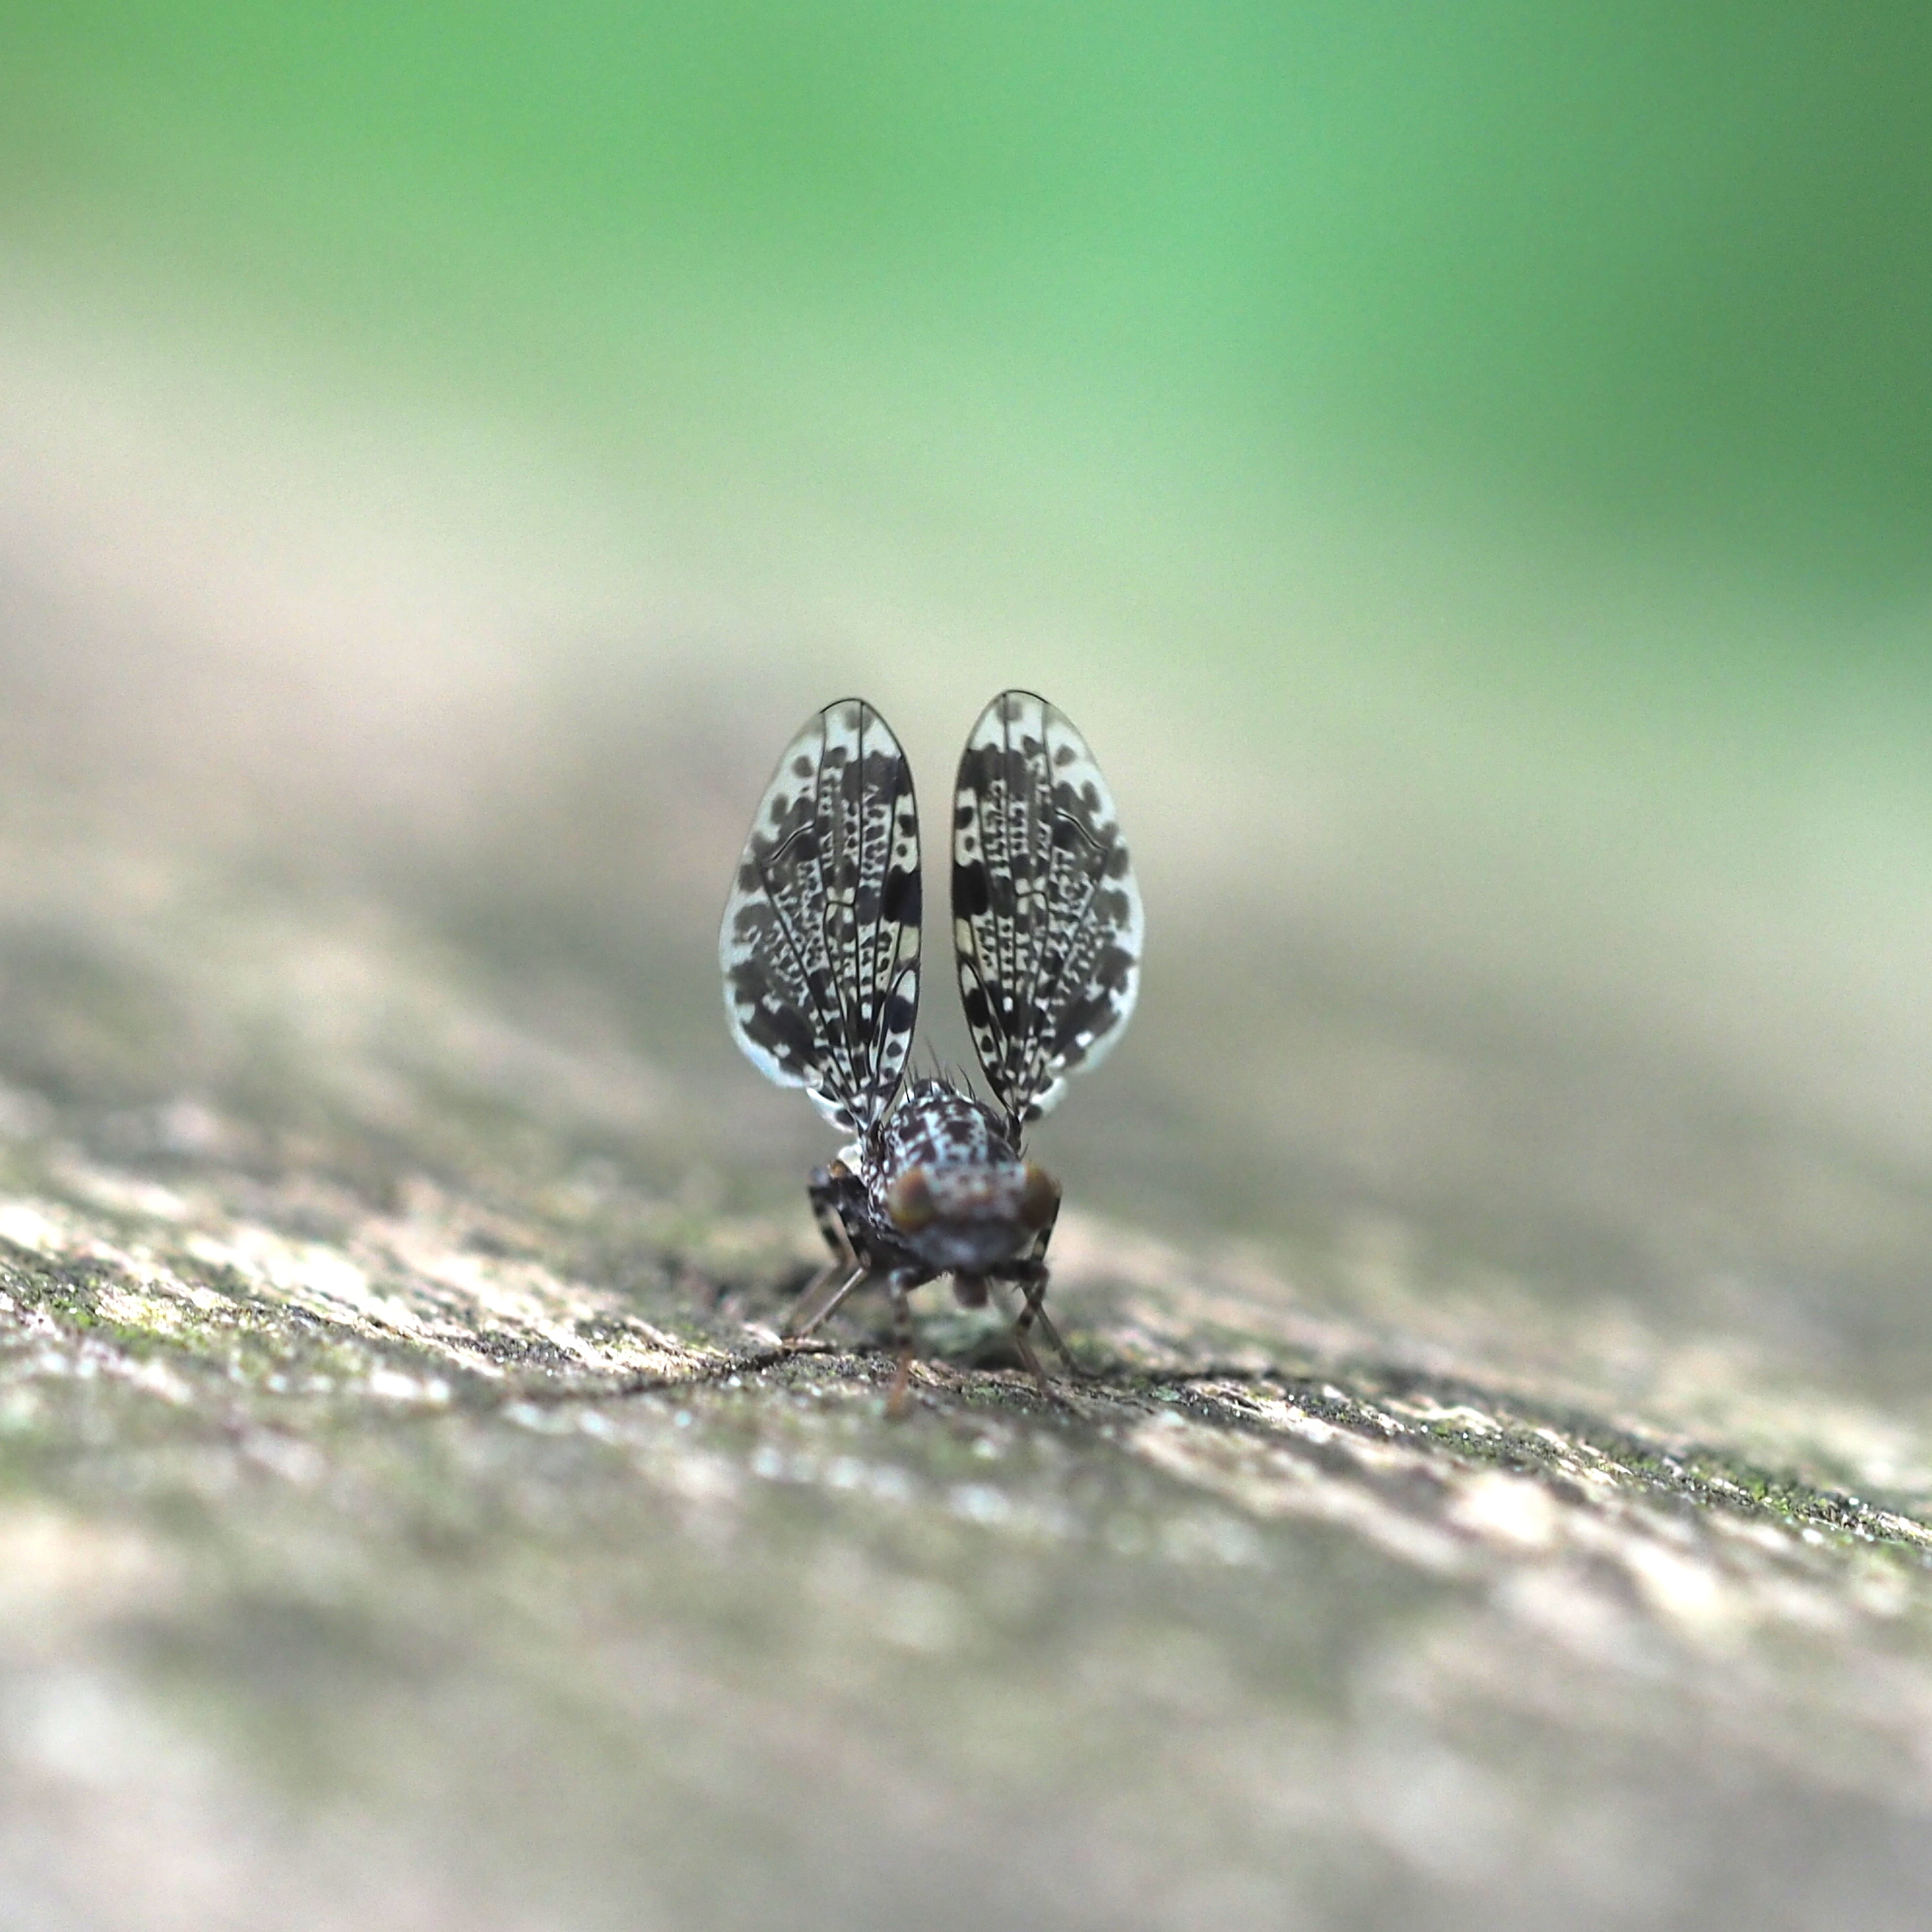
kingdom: Animalia
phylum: Arthropoda
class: Insecta
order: Diptera
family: Ulidiidae
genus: Callopistromyia
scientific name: Callopistromyia annulipes
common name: Peacock fly
